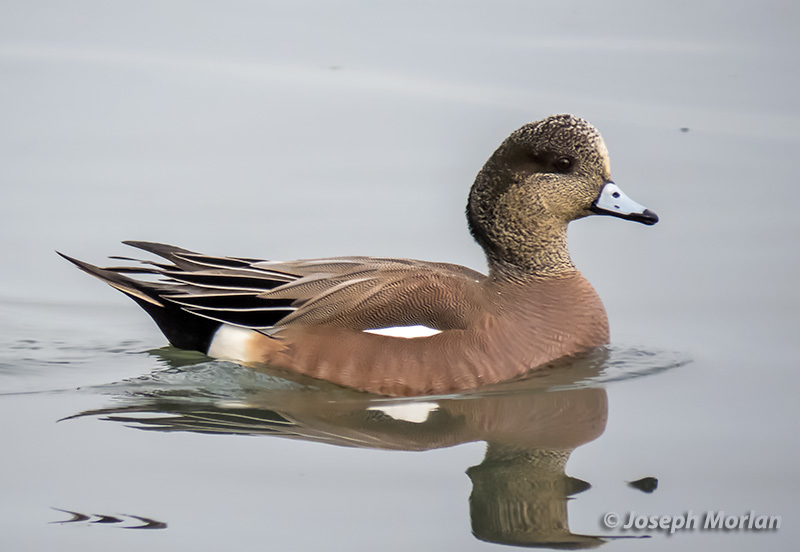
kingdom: Animalia
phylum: Chordata
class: Aves
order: Anseriformes
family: Anatidae
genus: Mareca
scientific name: Mareca americana
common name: American wigeon
